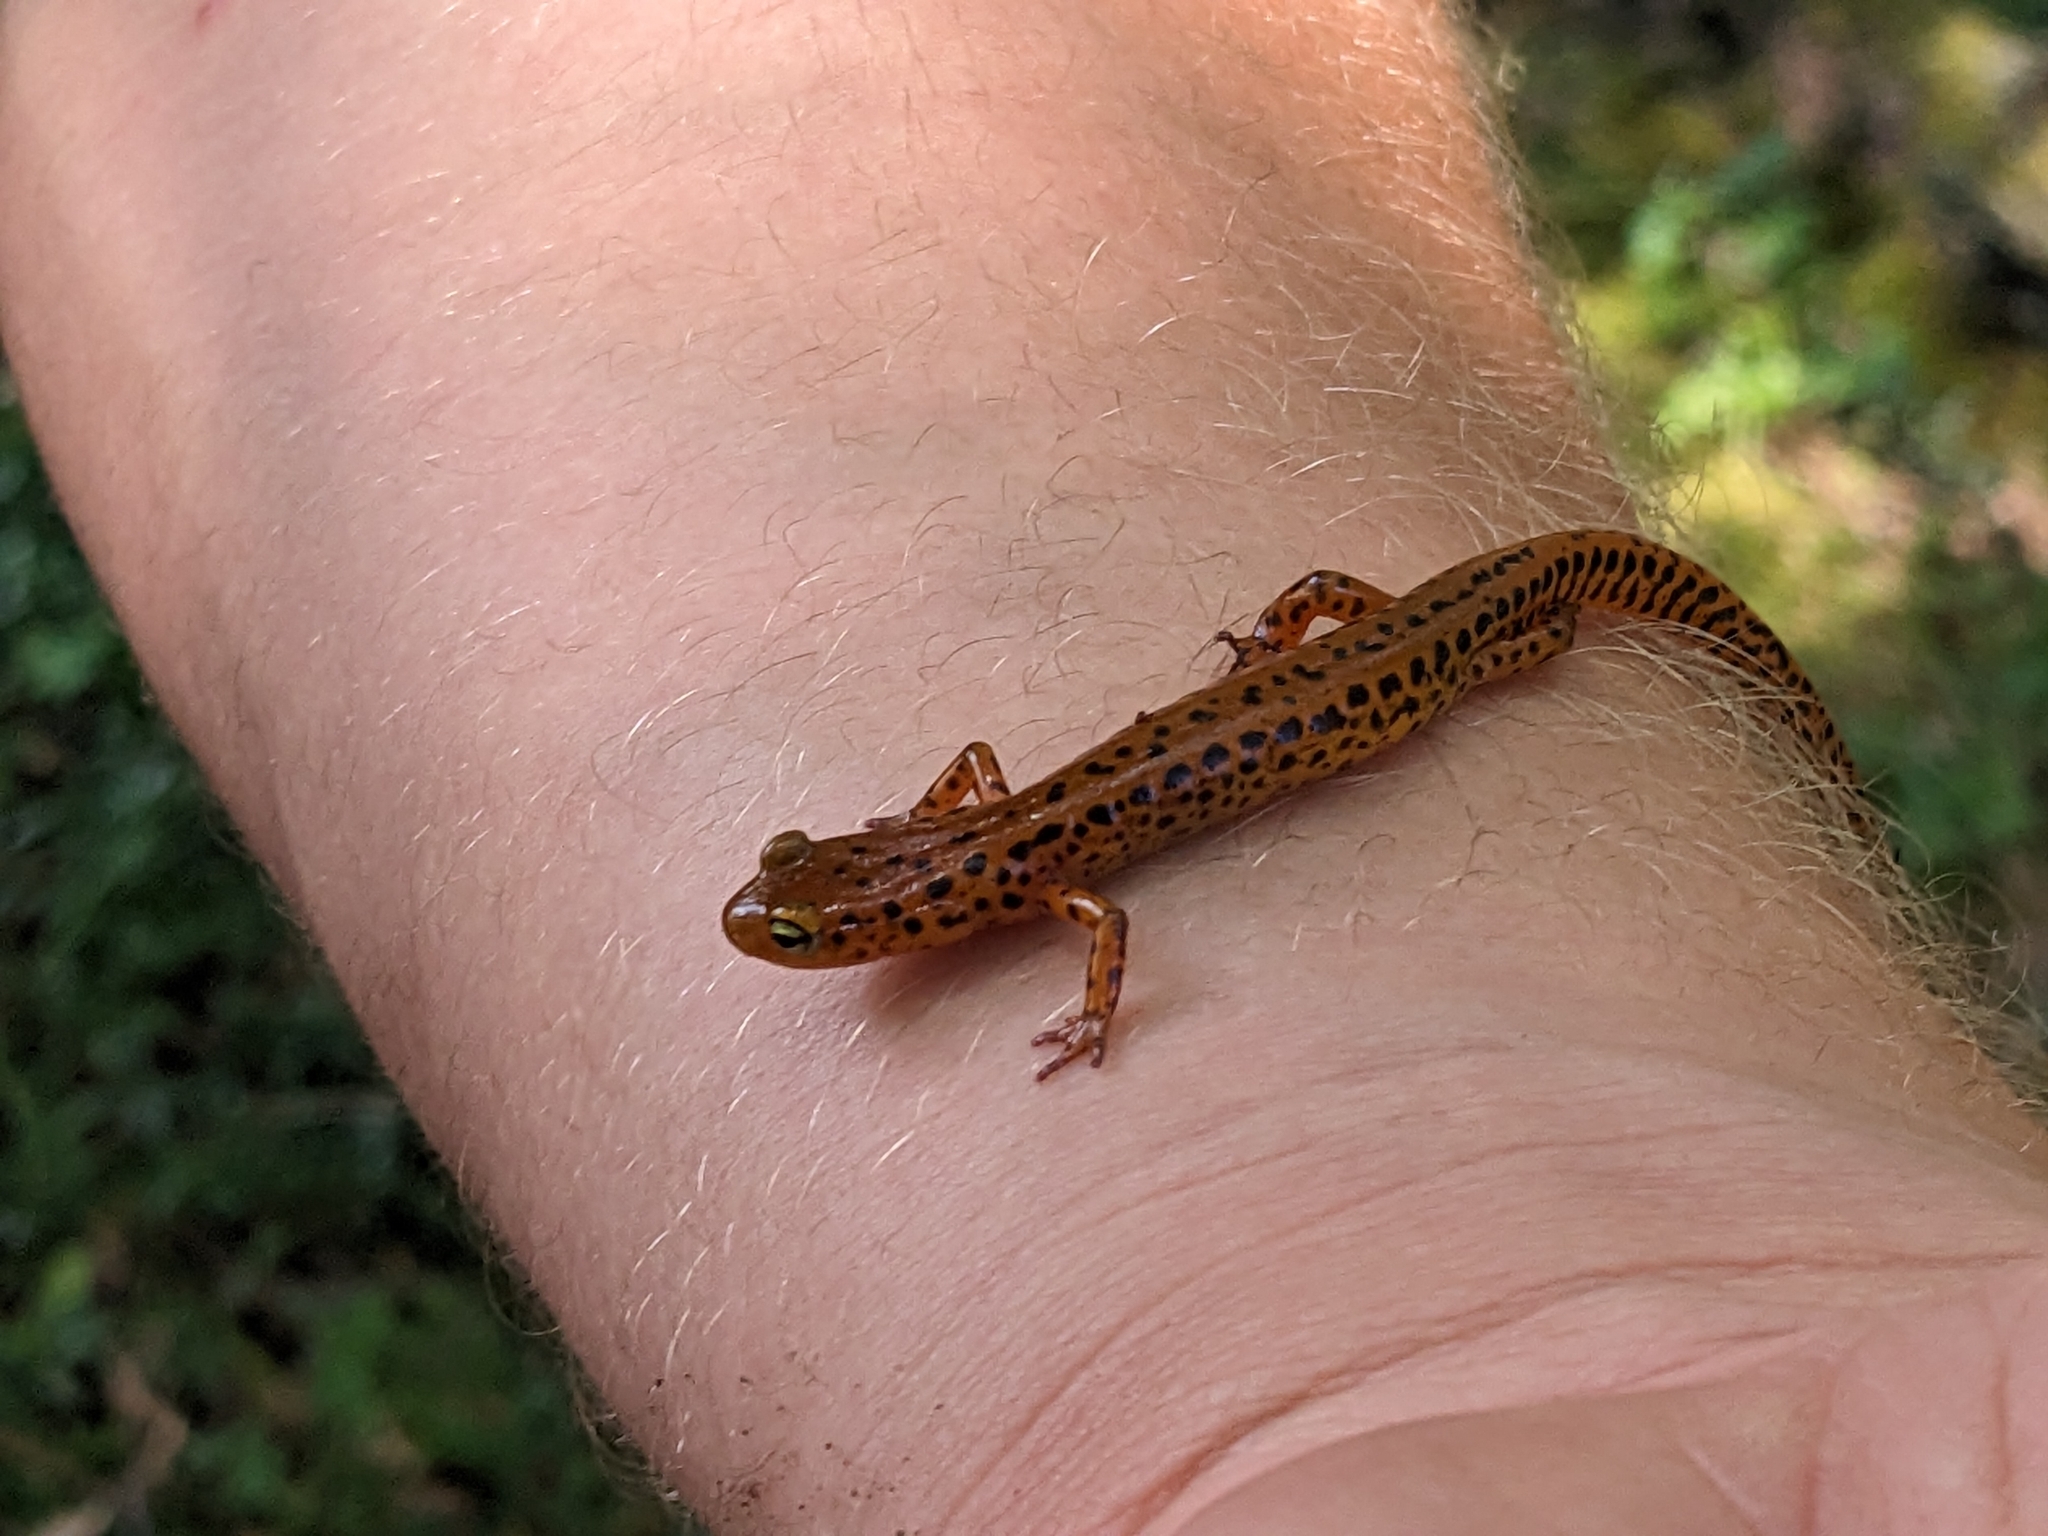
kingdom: Animalia
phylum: Chordata
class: Amphibia
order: Caudata
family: Plethodontidae
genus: Eurycea
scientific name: Eurycea longicauda
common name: Long-tailed salamander
